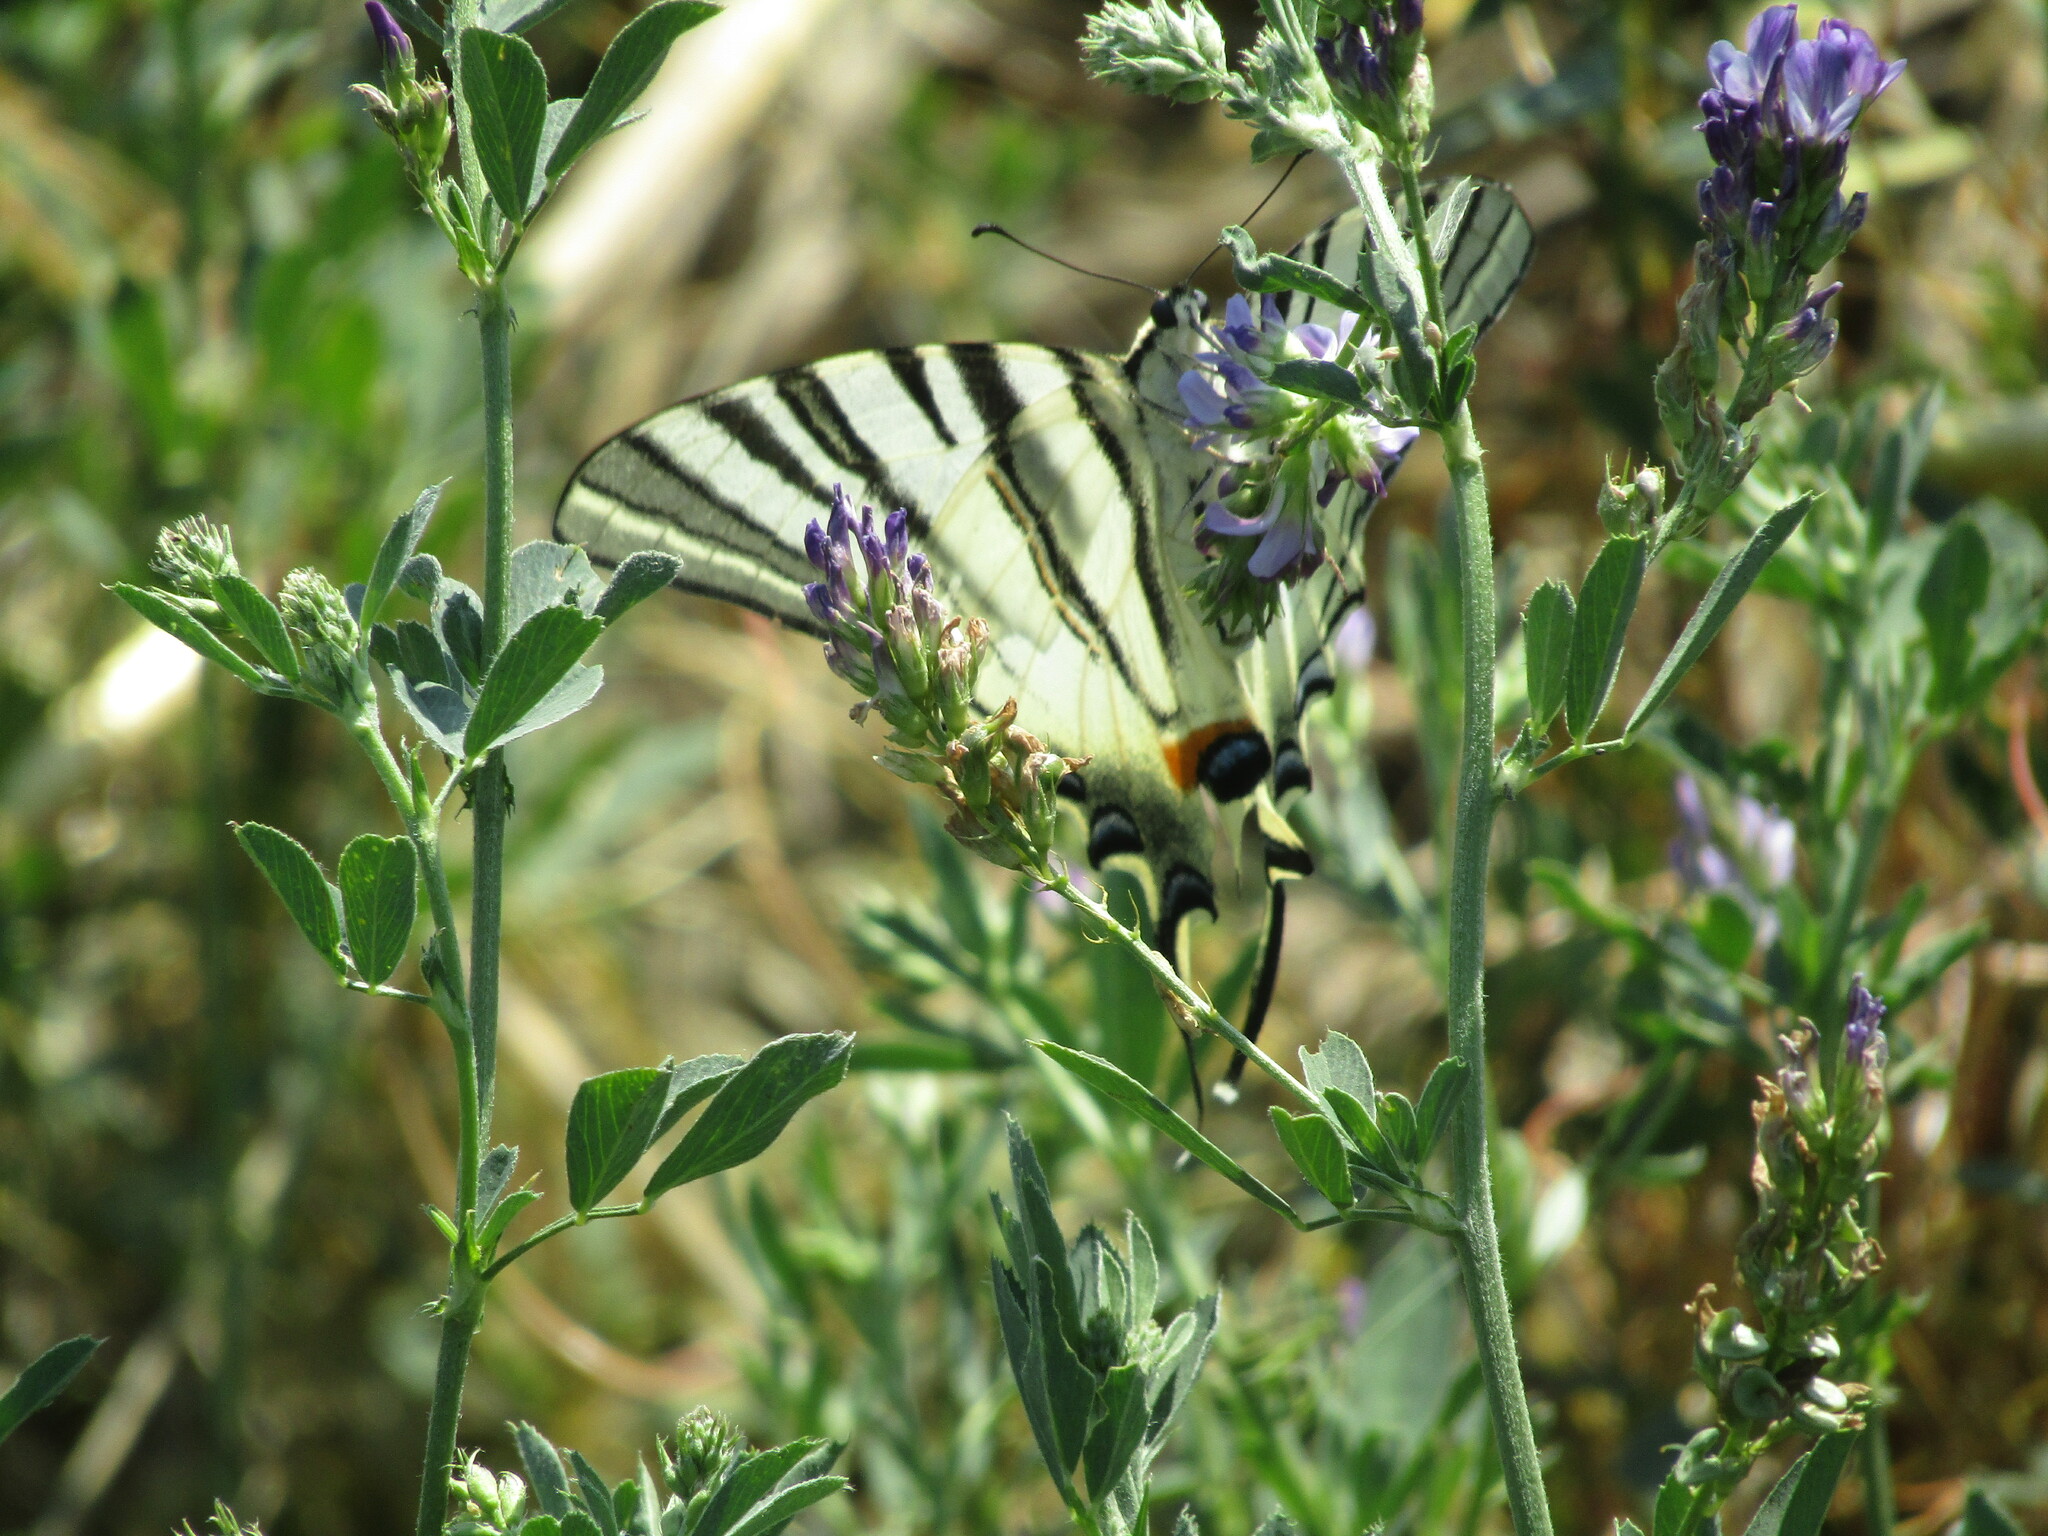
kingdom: Animalia
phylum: Arthropoda
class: Insecta
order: Lepidoptera
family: Papilionidae
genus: Iphiclides
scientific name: Iphiclides podalirius
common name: Scarce swallowtail
